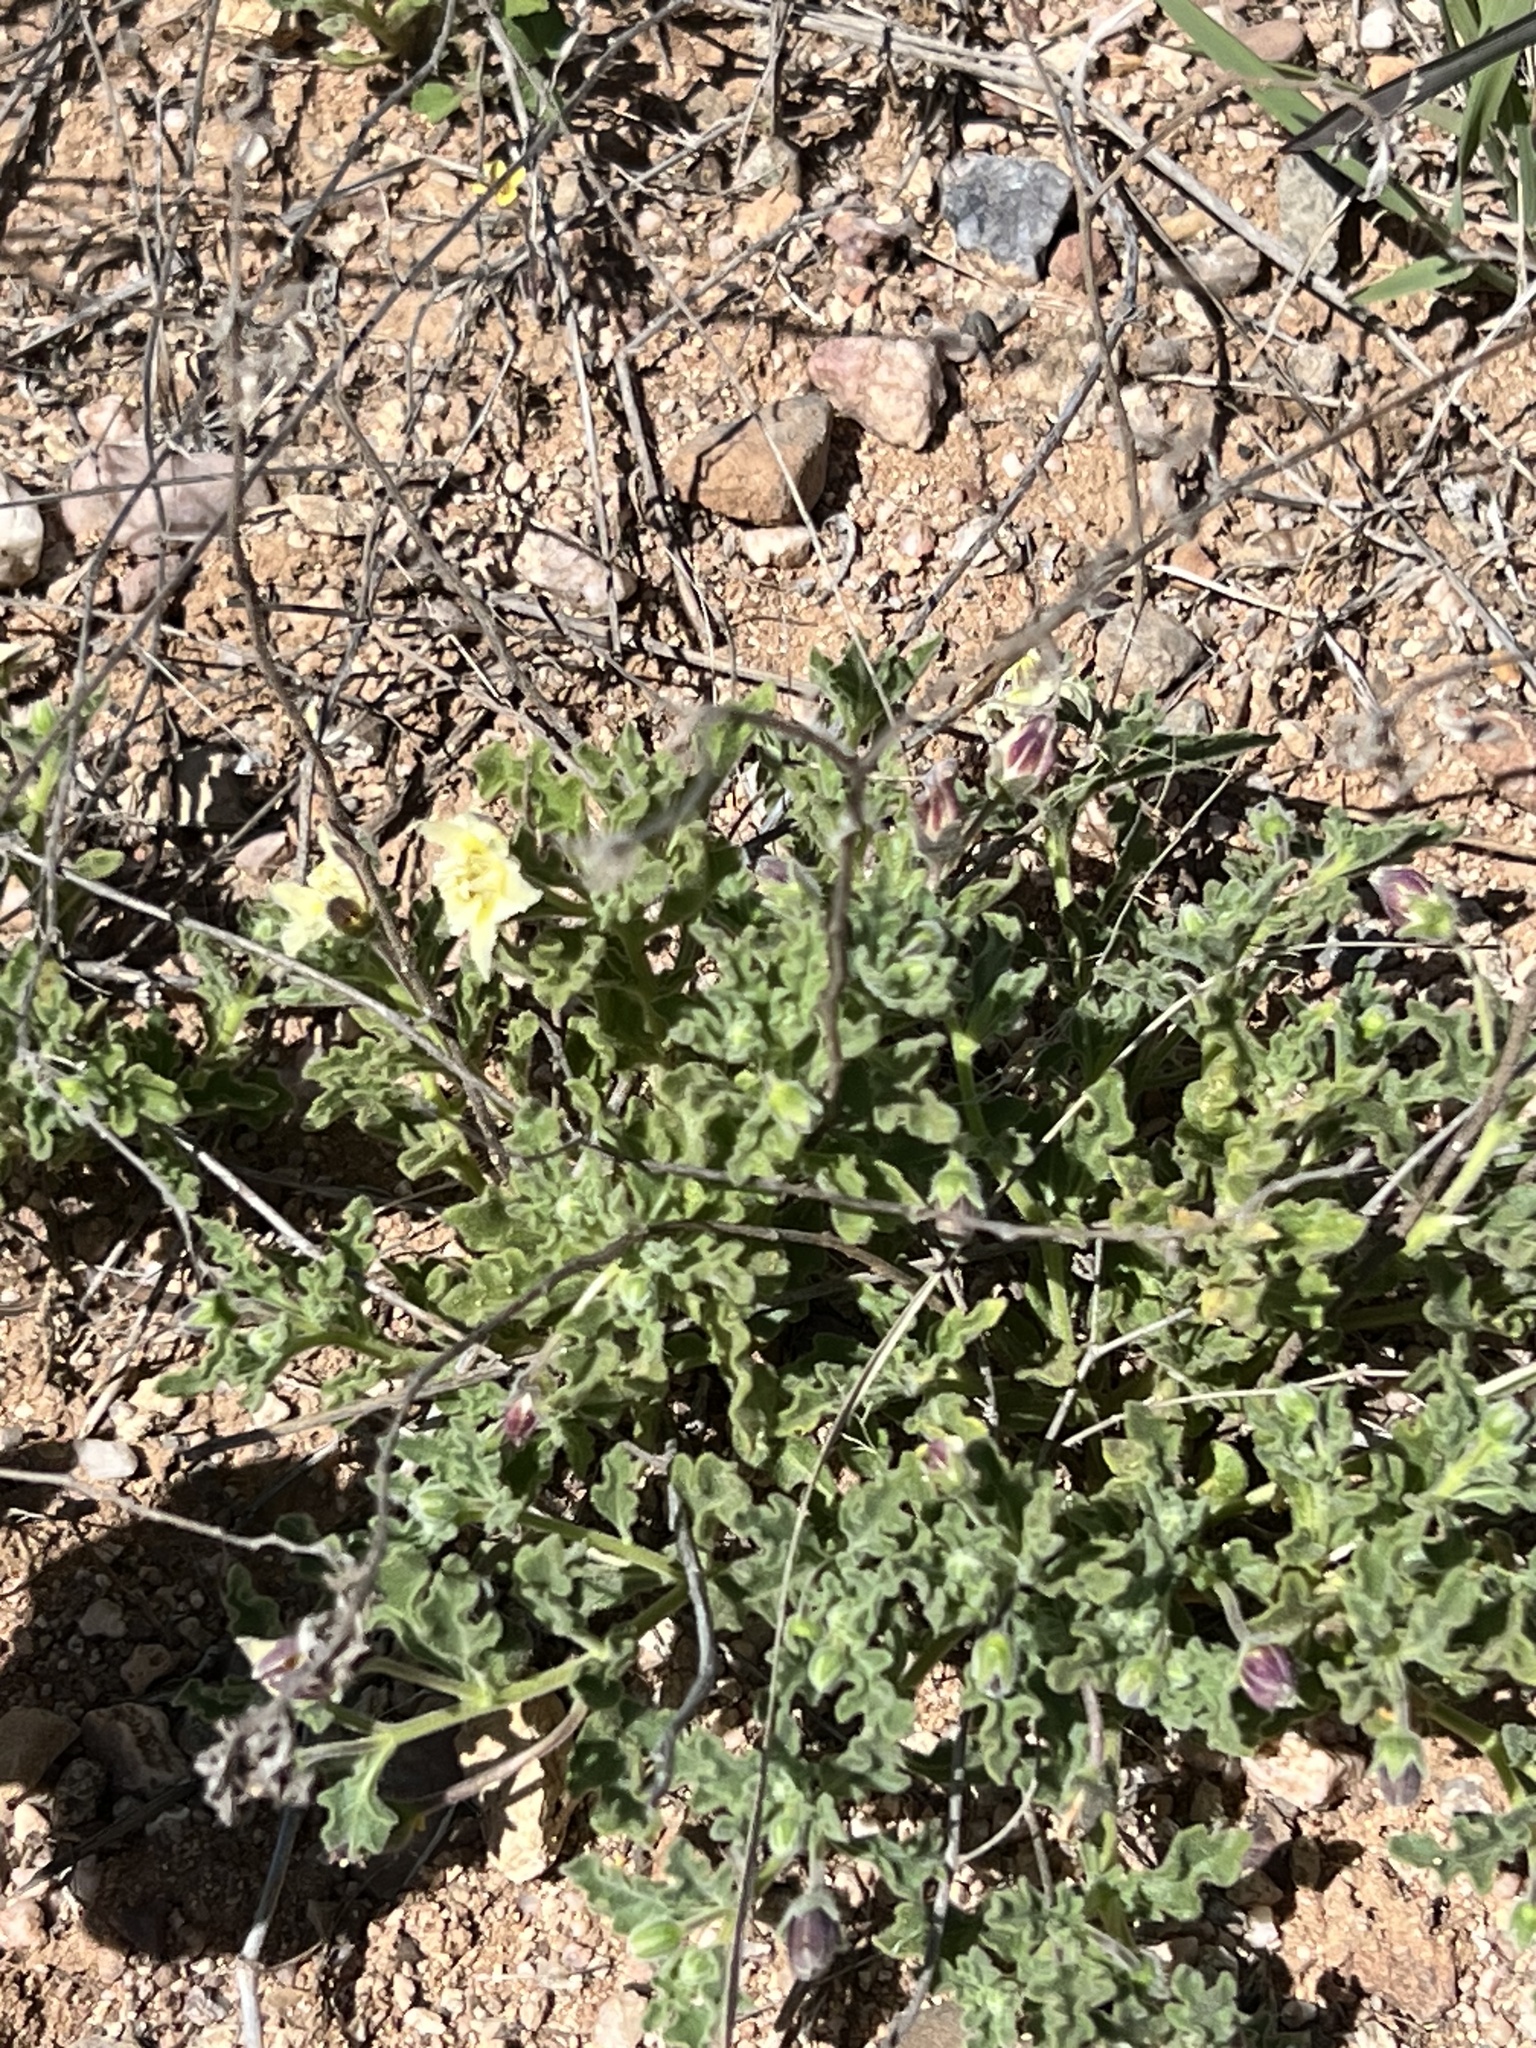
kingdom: Plantae
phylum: Tracheophyta
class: Magnoliopsida
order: Solanales
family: Solanaceae
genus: Chamaesaracha
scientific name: Chamaesaracha sordida
